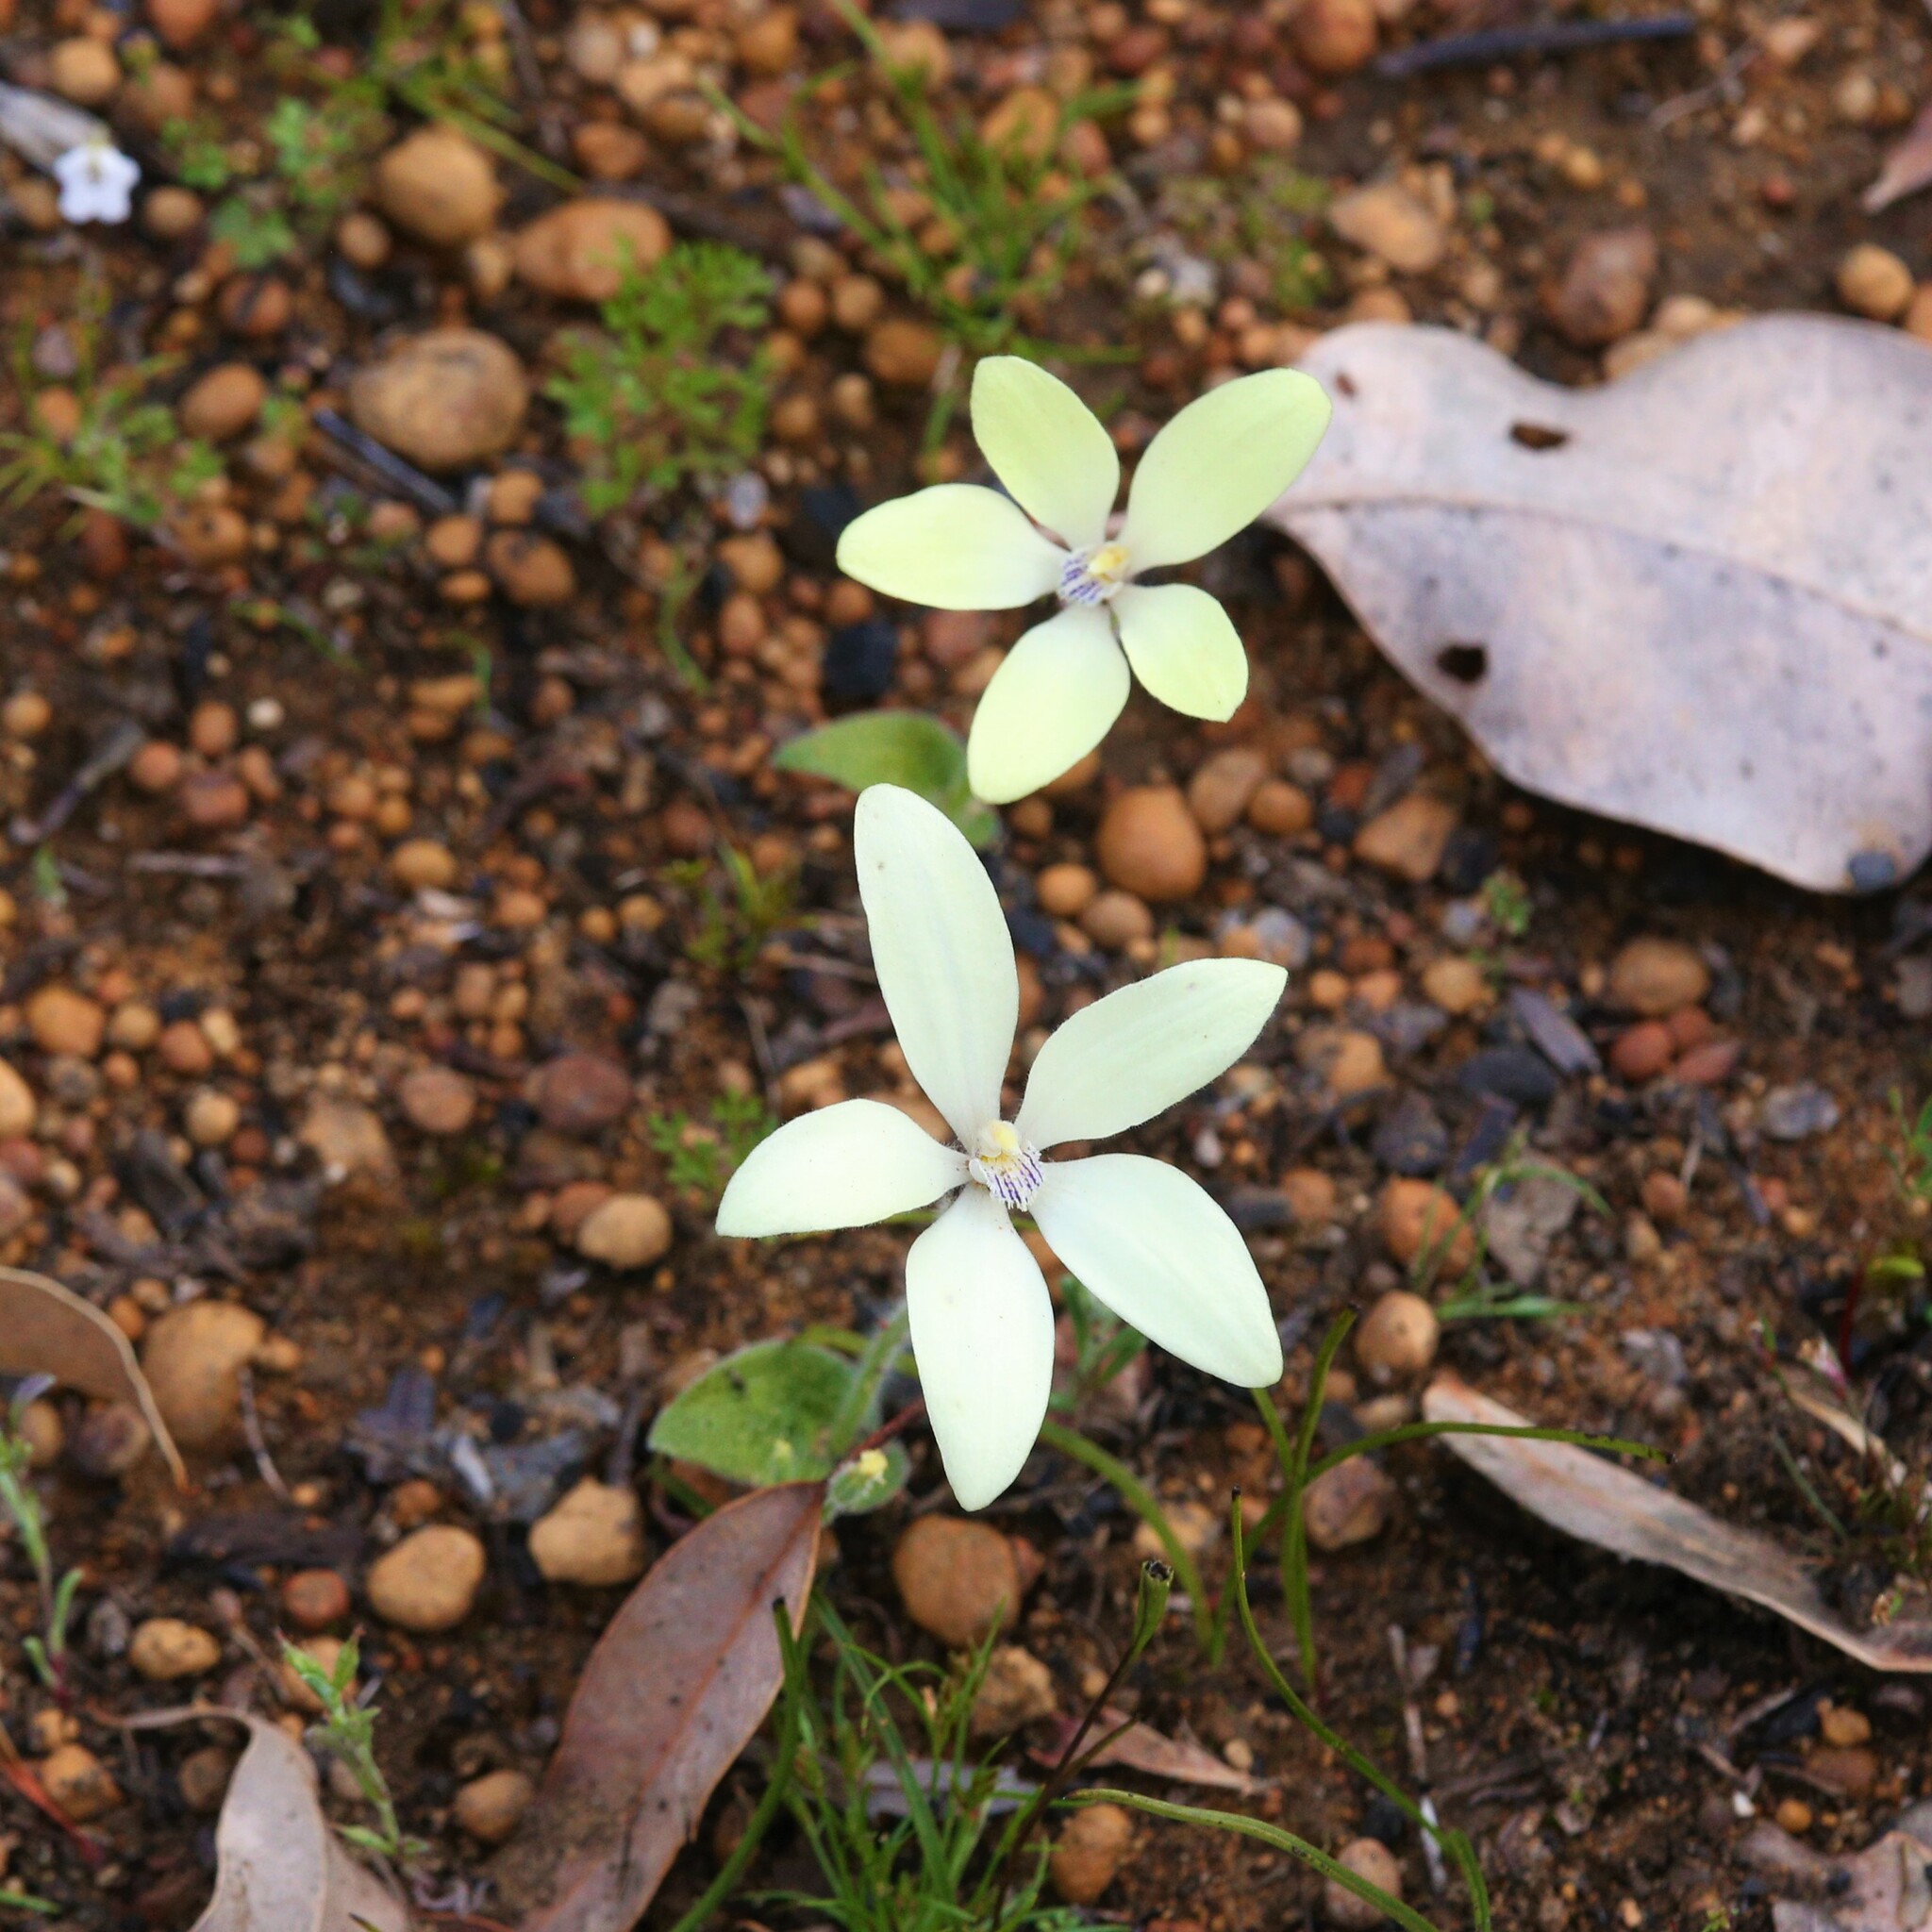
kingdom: Plantae
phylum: Tracheophyta
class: Liliopsida
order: Asparagales
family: Orchidaceae
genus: Caladenia
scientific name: Caladenia ixioides
